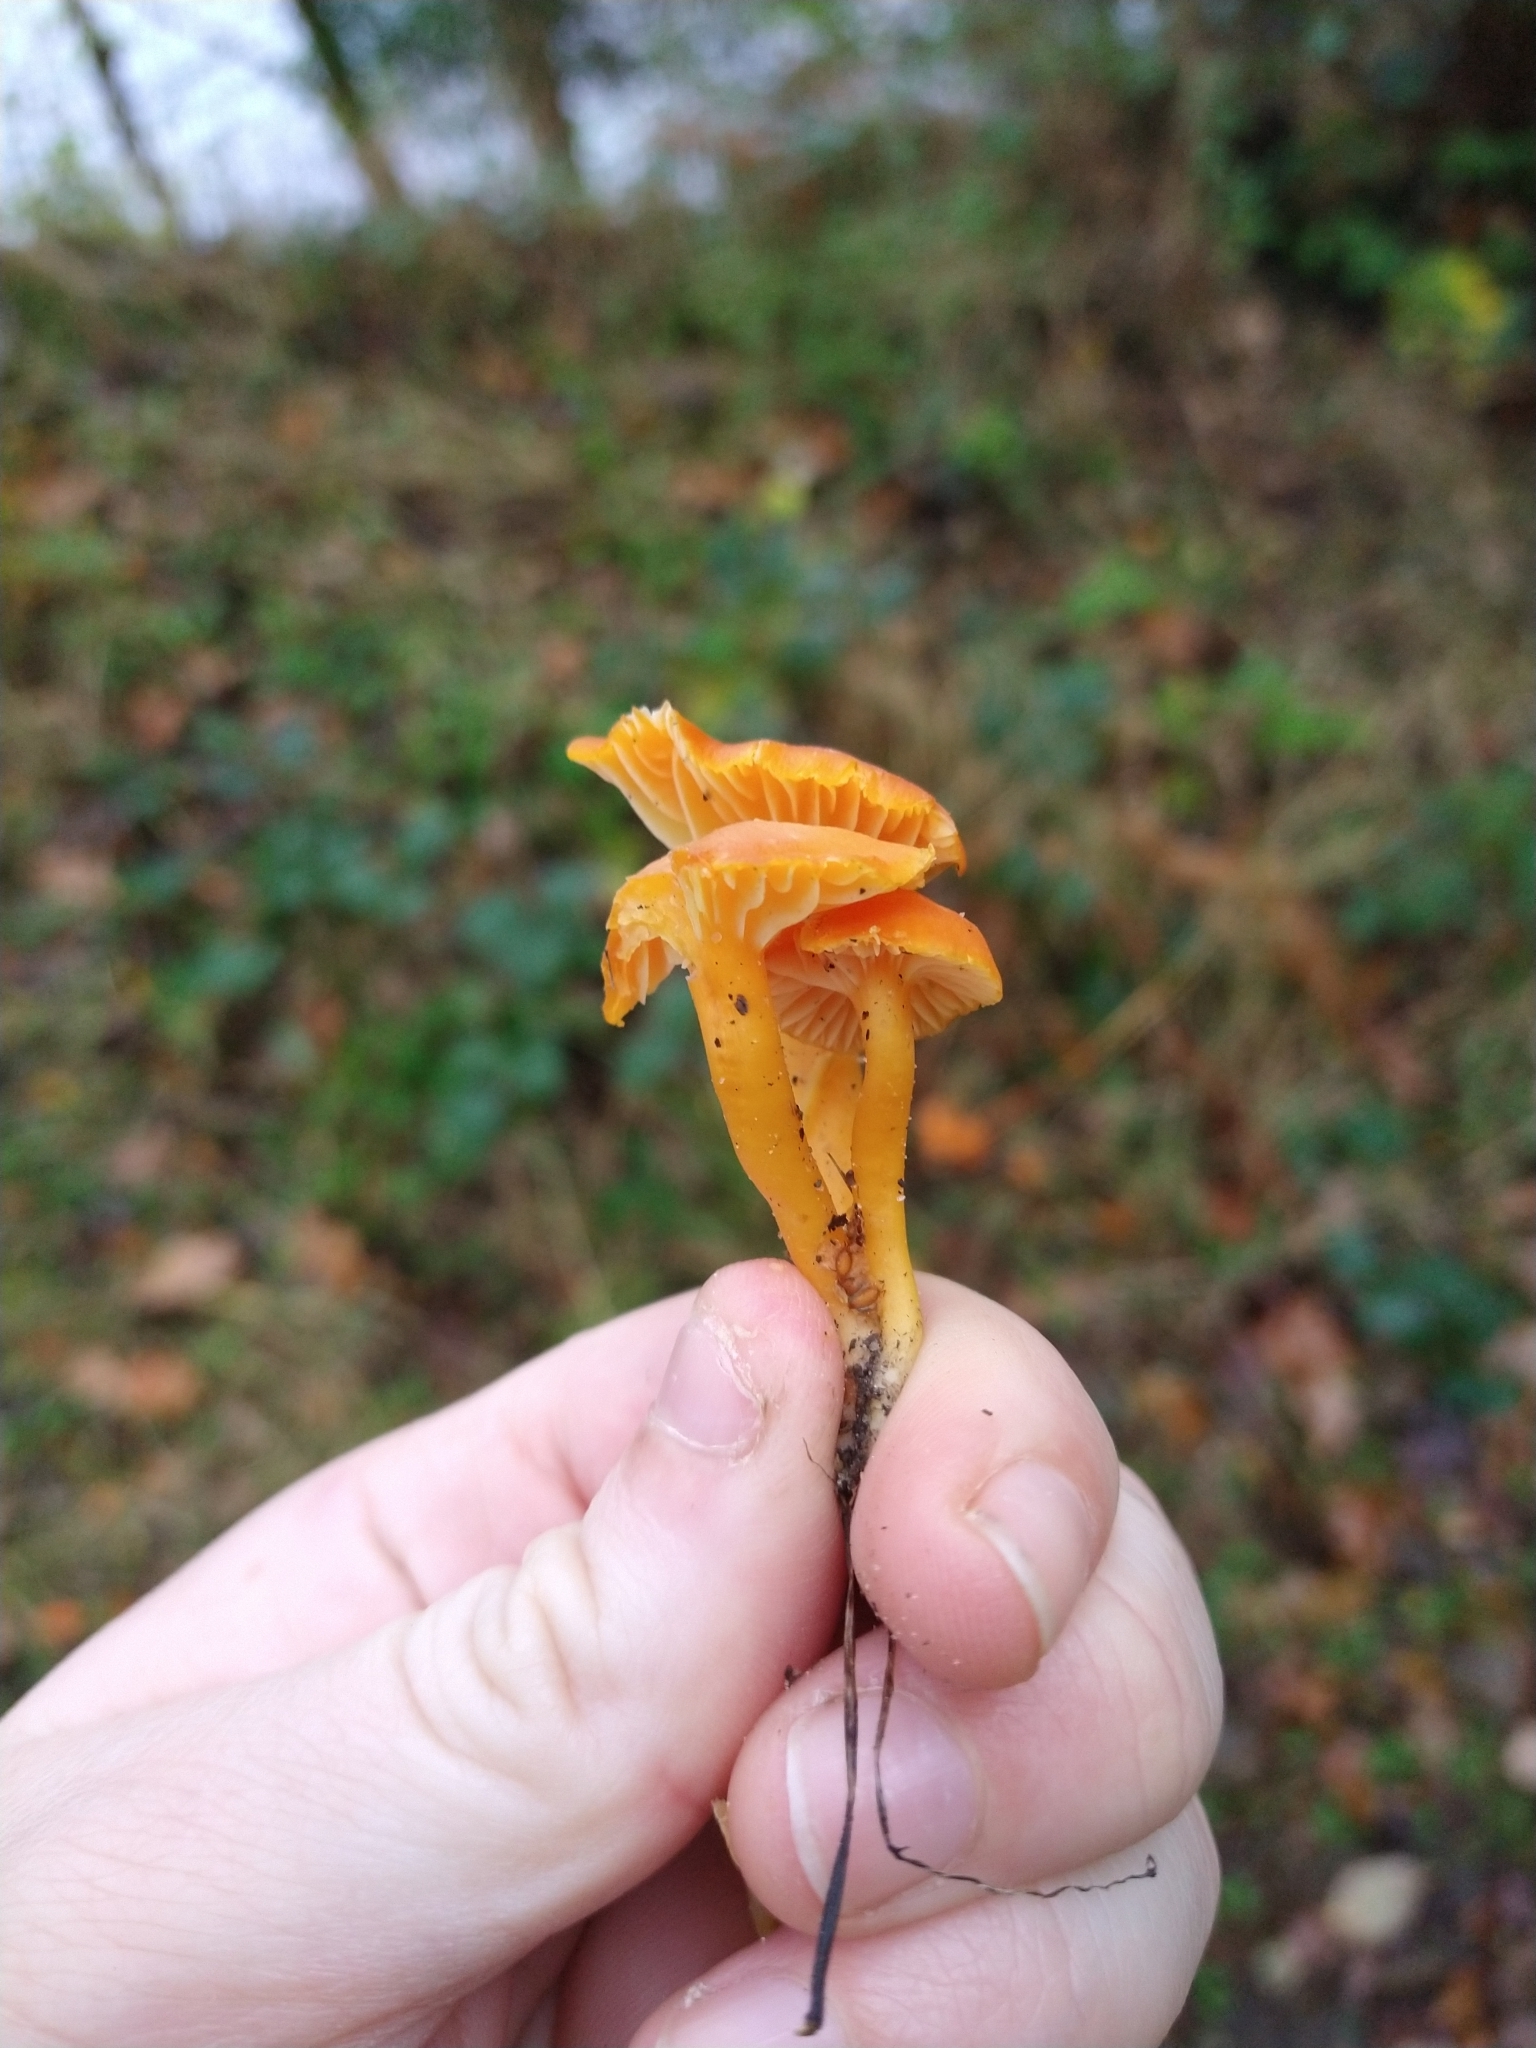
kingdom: Fungi
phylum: Basidiomycota
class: Agaricomycetes
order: Agaricales
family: Hygrophoraceae
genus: Hygrocybe
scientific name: Hygrocybe reidii
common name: Honey waxcap
